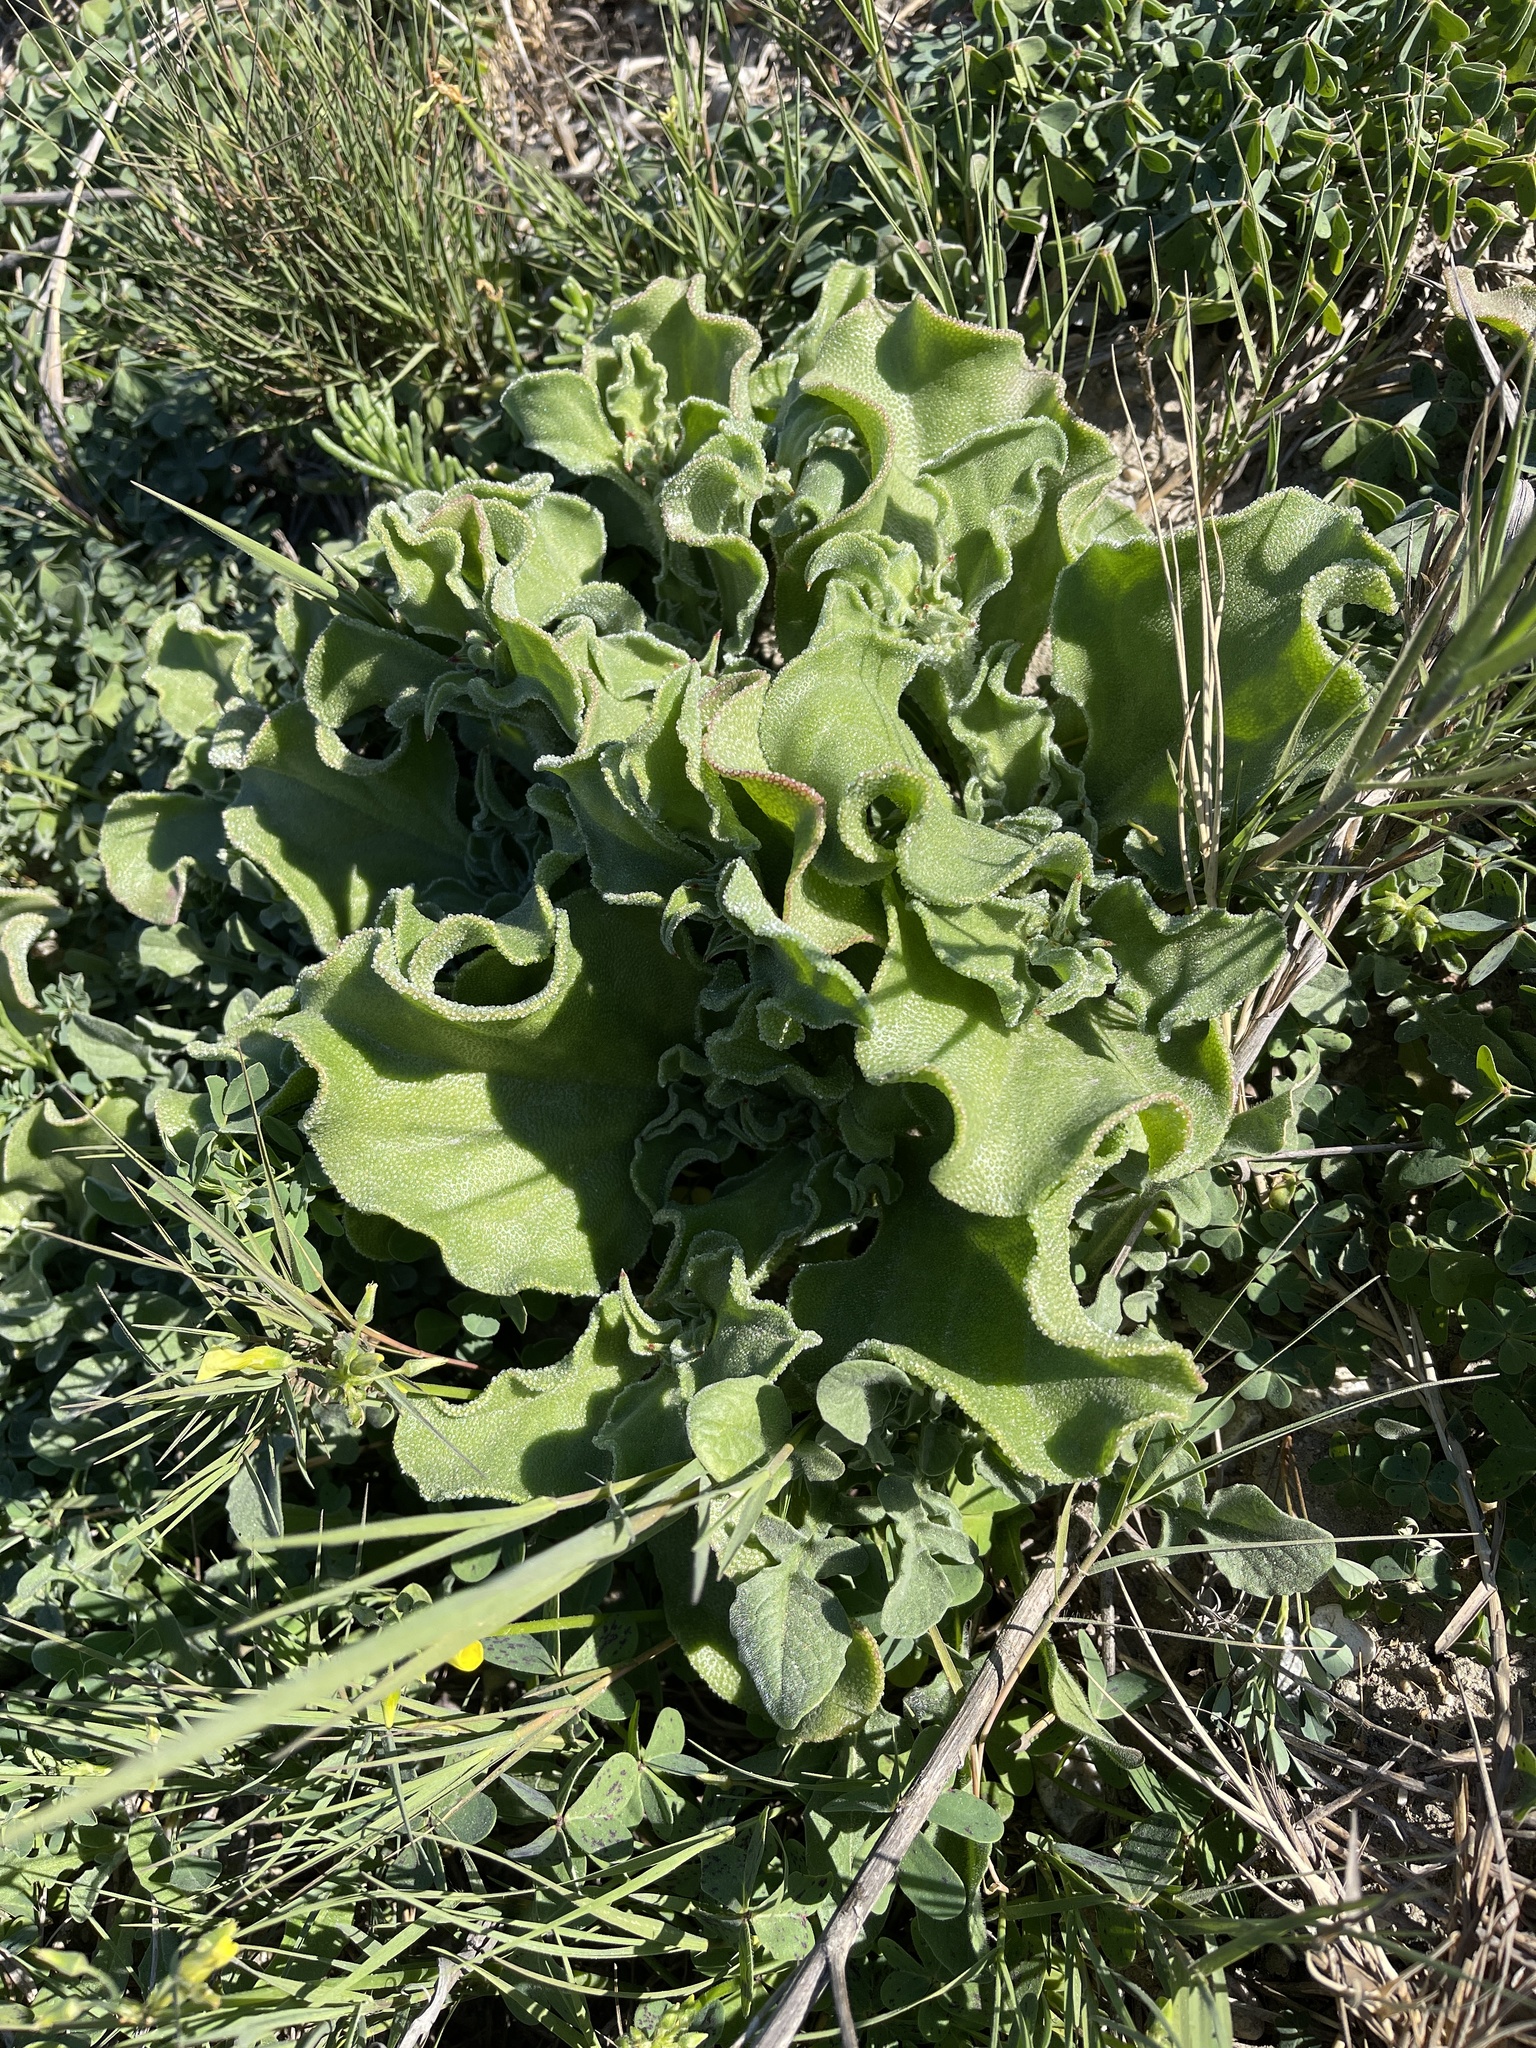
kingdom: Plantae
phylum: Tracheophyta
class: Magnoliopsida
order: Caryophyllales
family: Aizoaceae
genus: Mesembryanthemum
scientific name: Mesembryanthemum crystallinum
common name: Common iceplant
